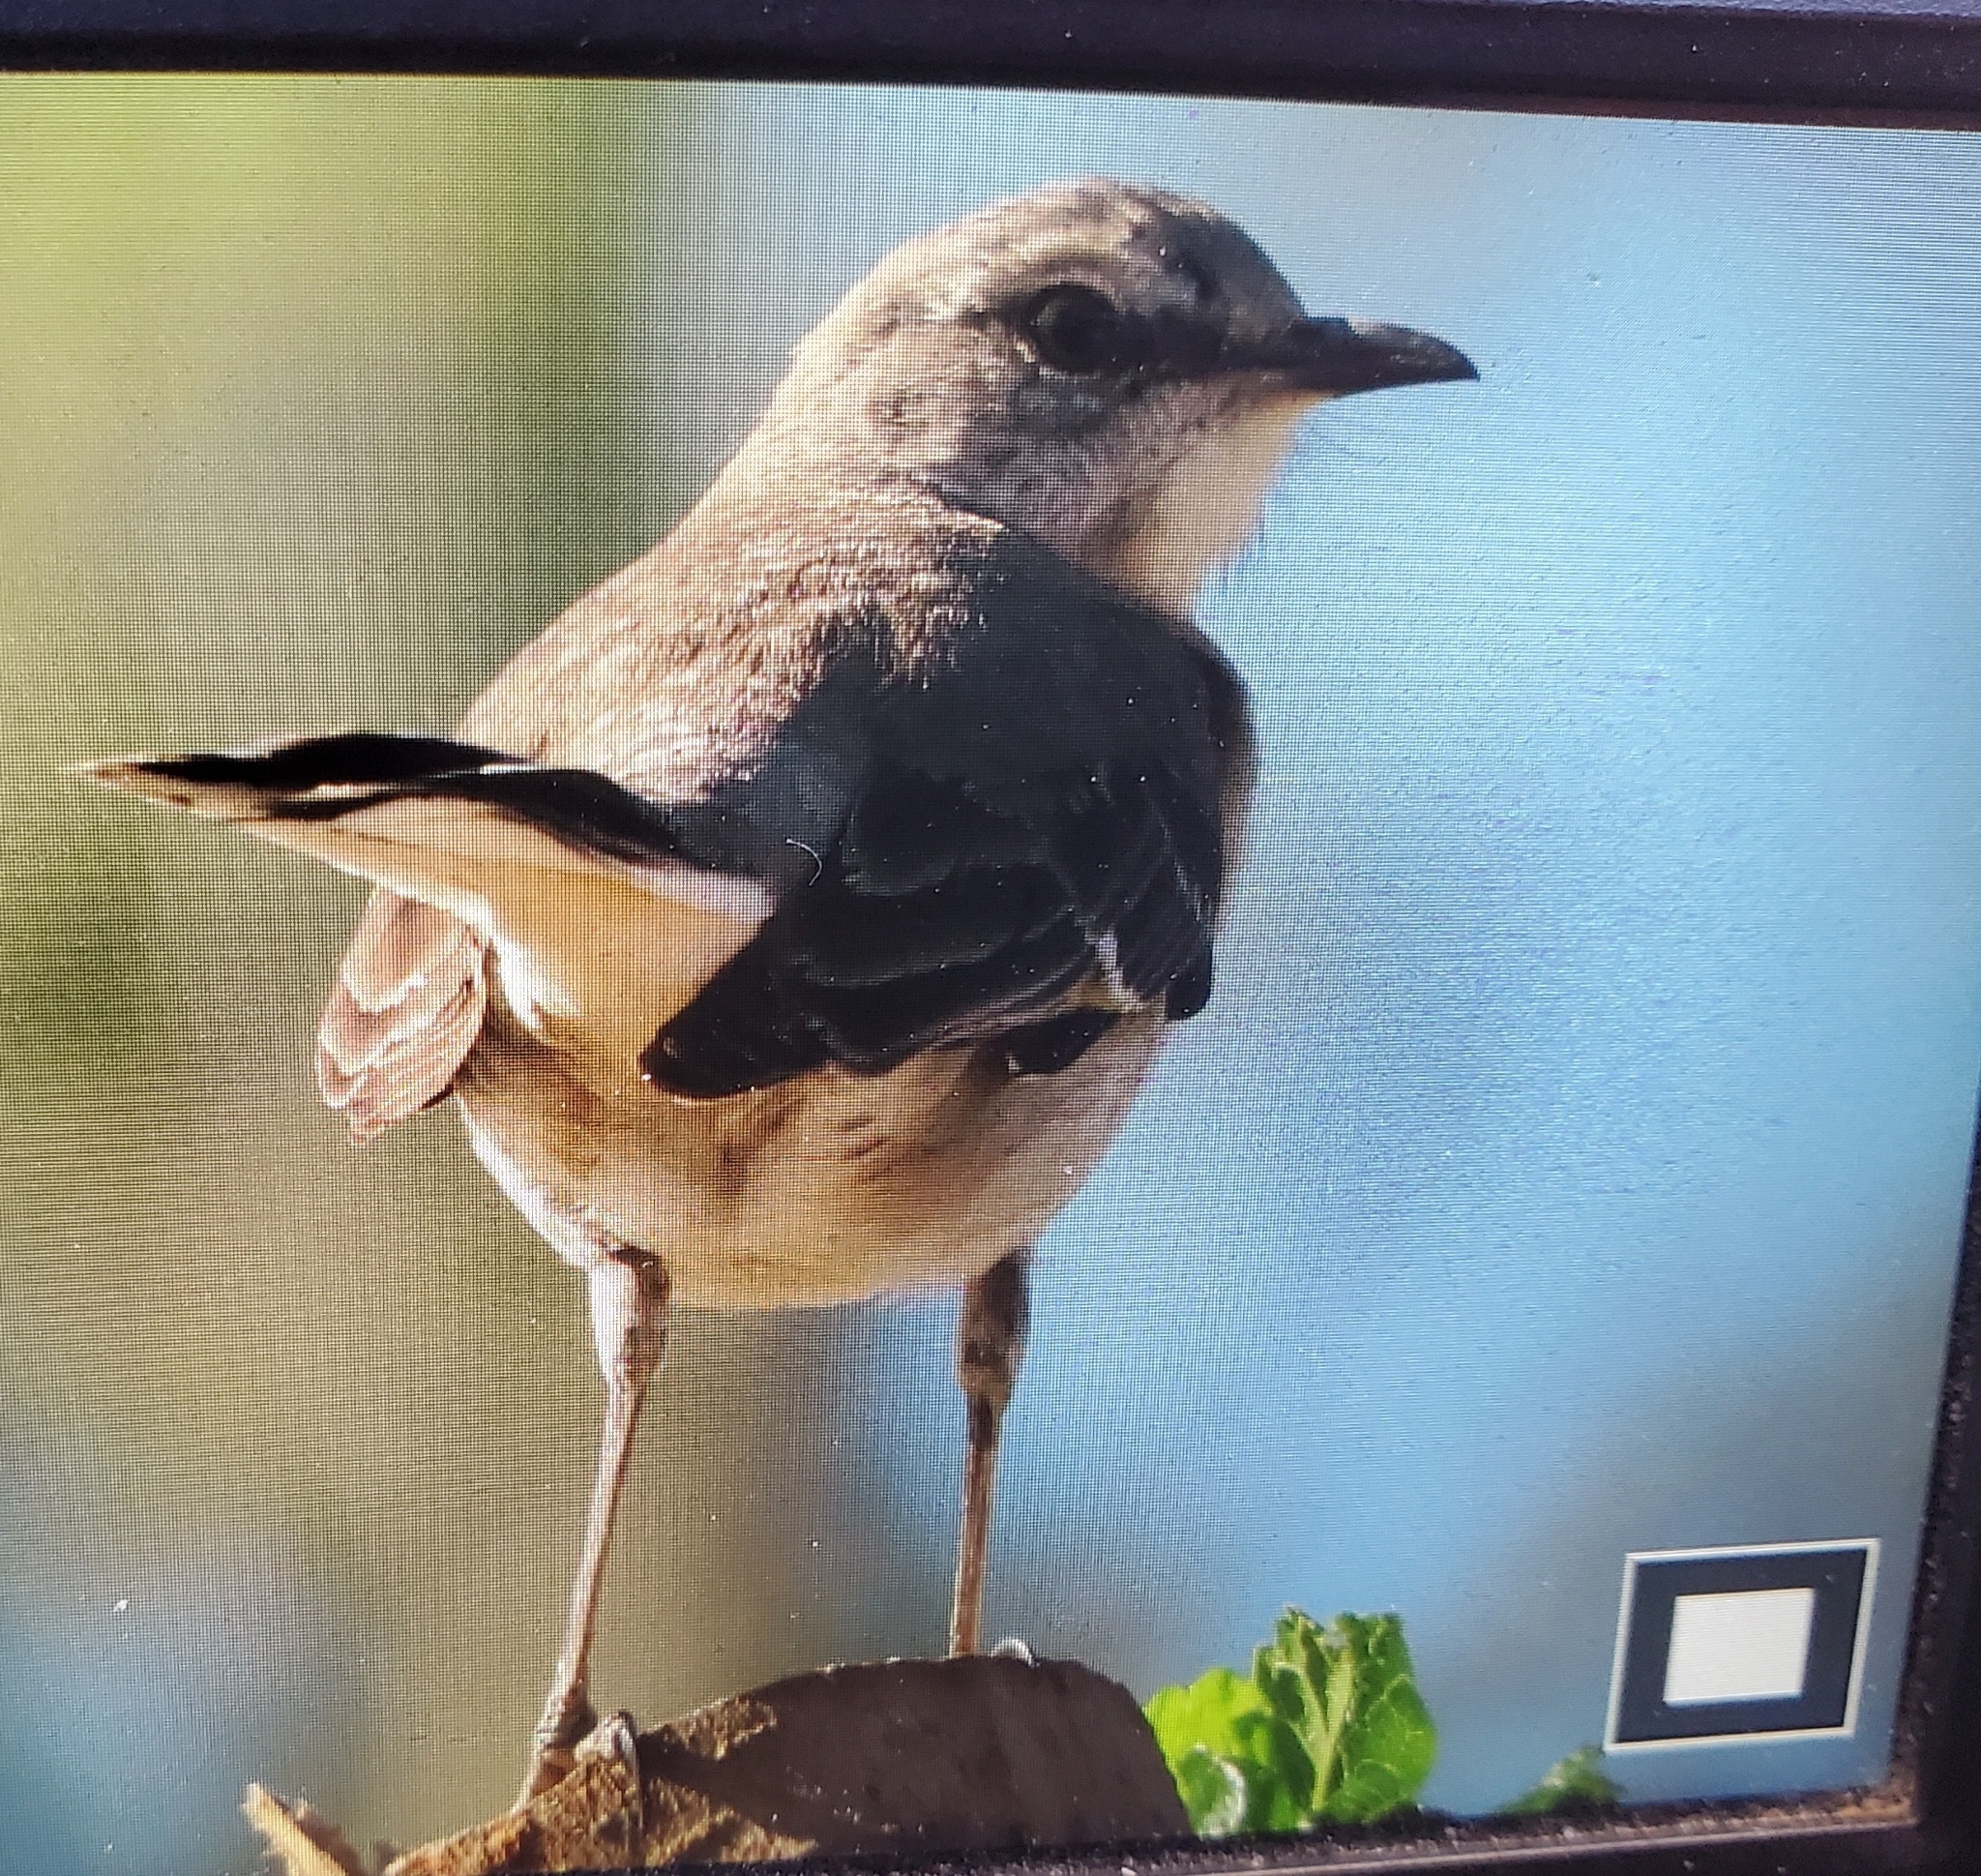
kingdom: Animalia
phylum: Chordata
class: Aves
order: Passeriformes
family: Mimidae
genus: Mimus
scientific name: Mimus polyglottos
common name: Northern mockingbird
